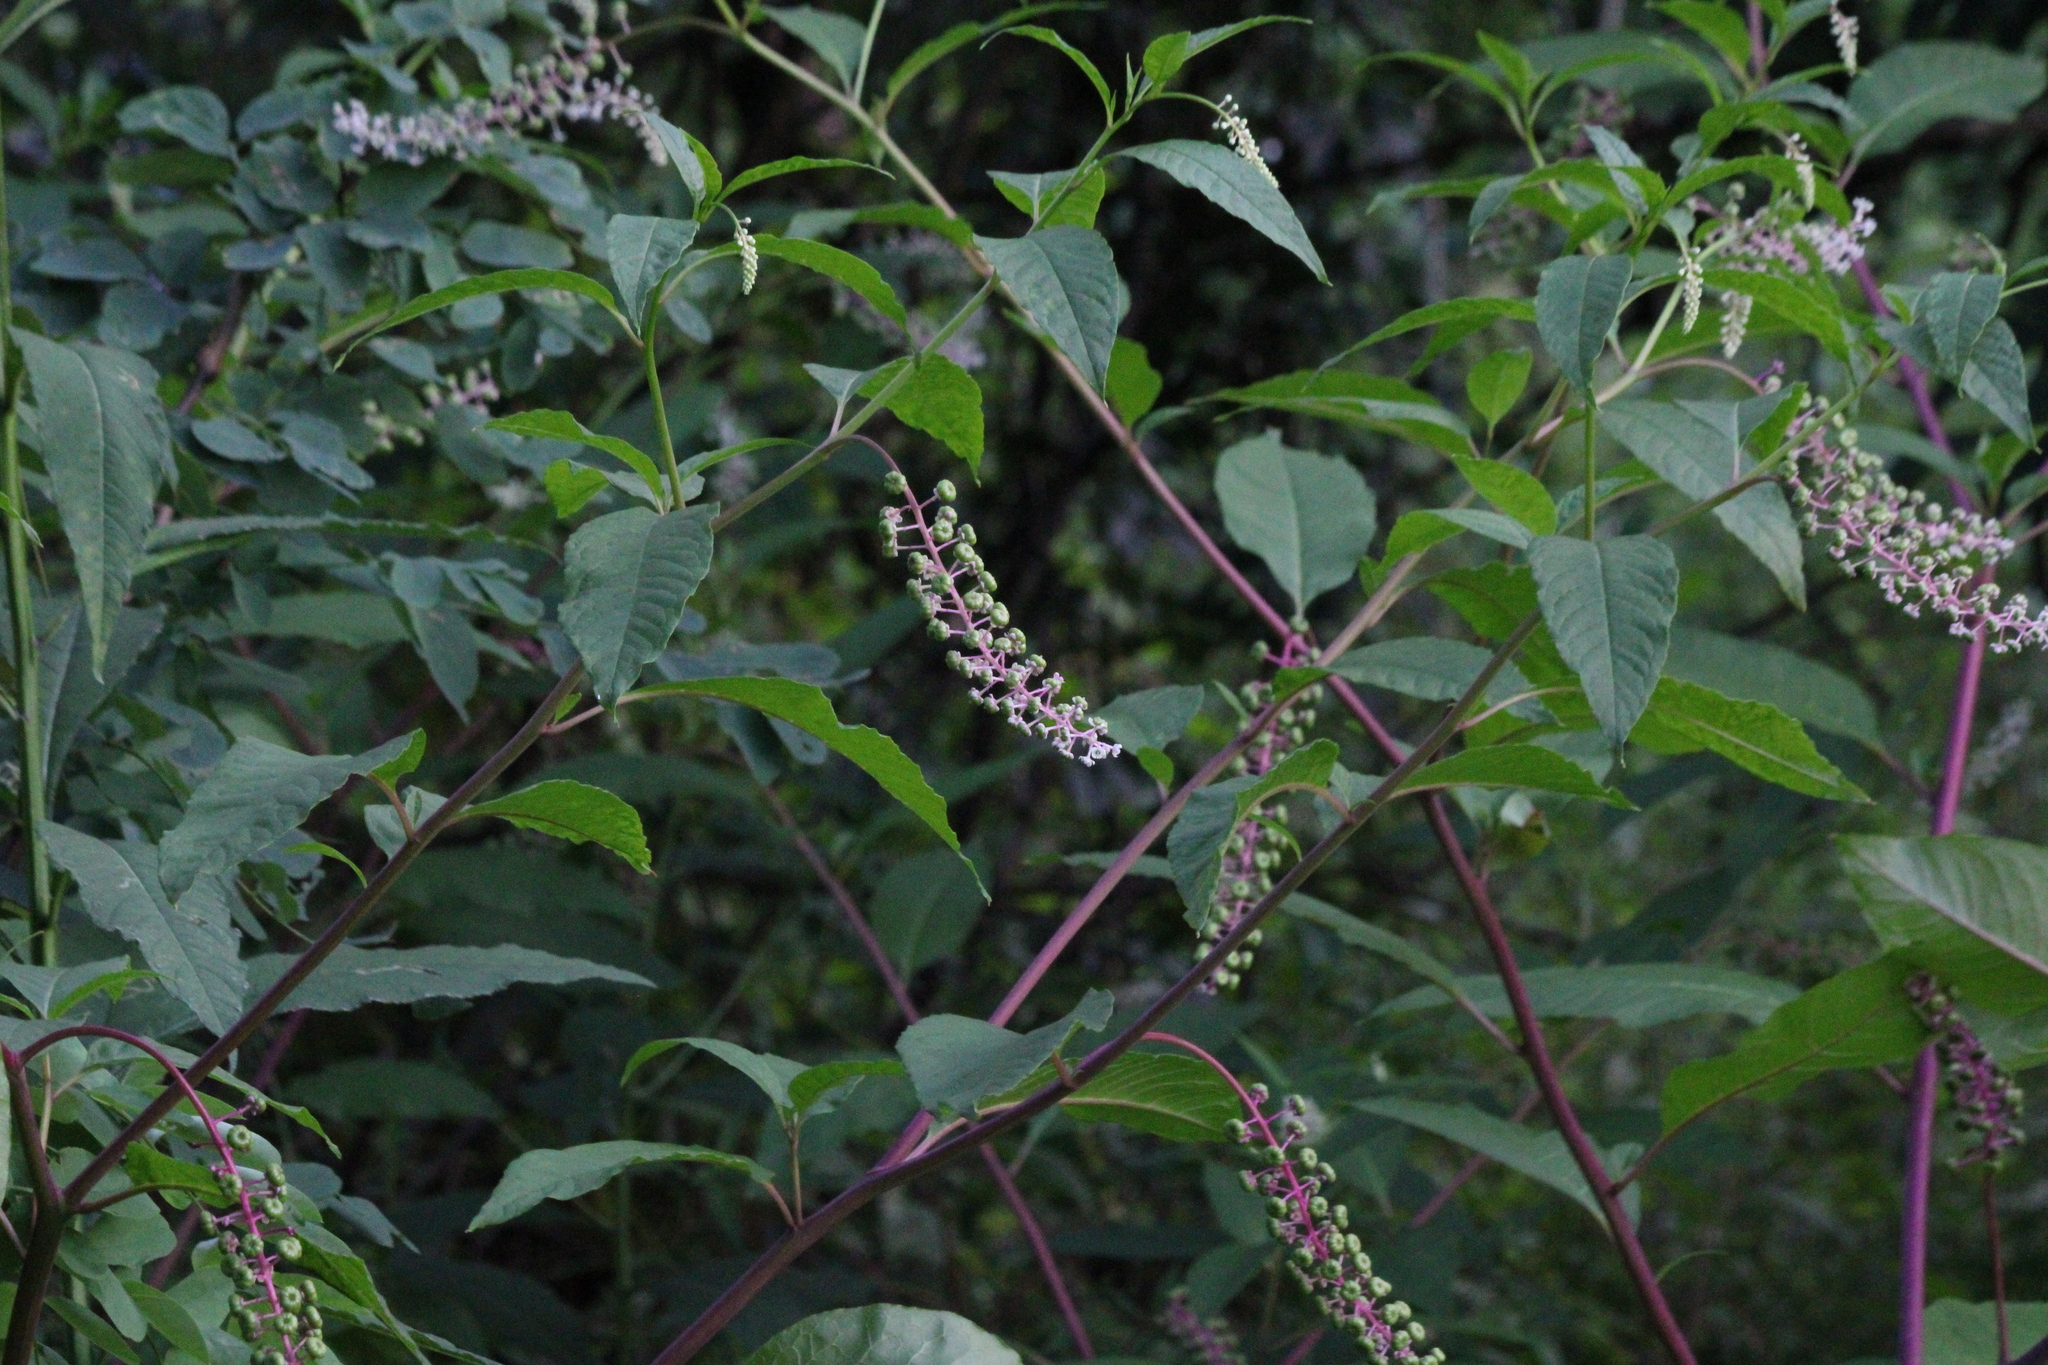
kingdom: Plantae
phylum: Tracheophyta
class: Magnoliopsida
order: Caryophyllales
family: Phytolaccaceae
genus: Phytolacca
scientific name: Phytolacca americana
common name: American pokeweed
